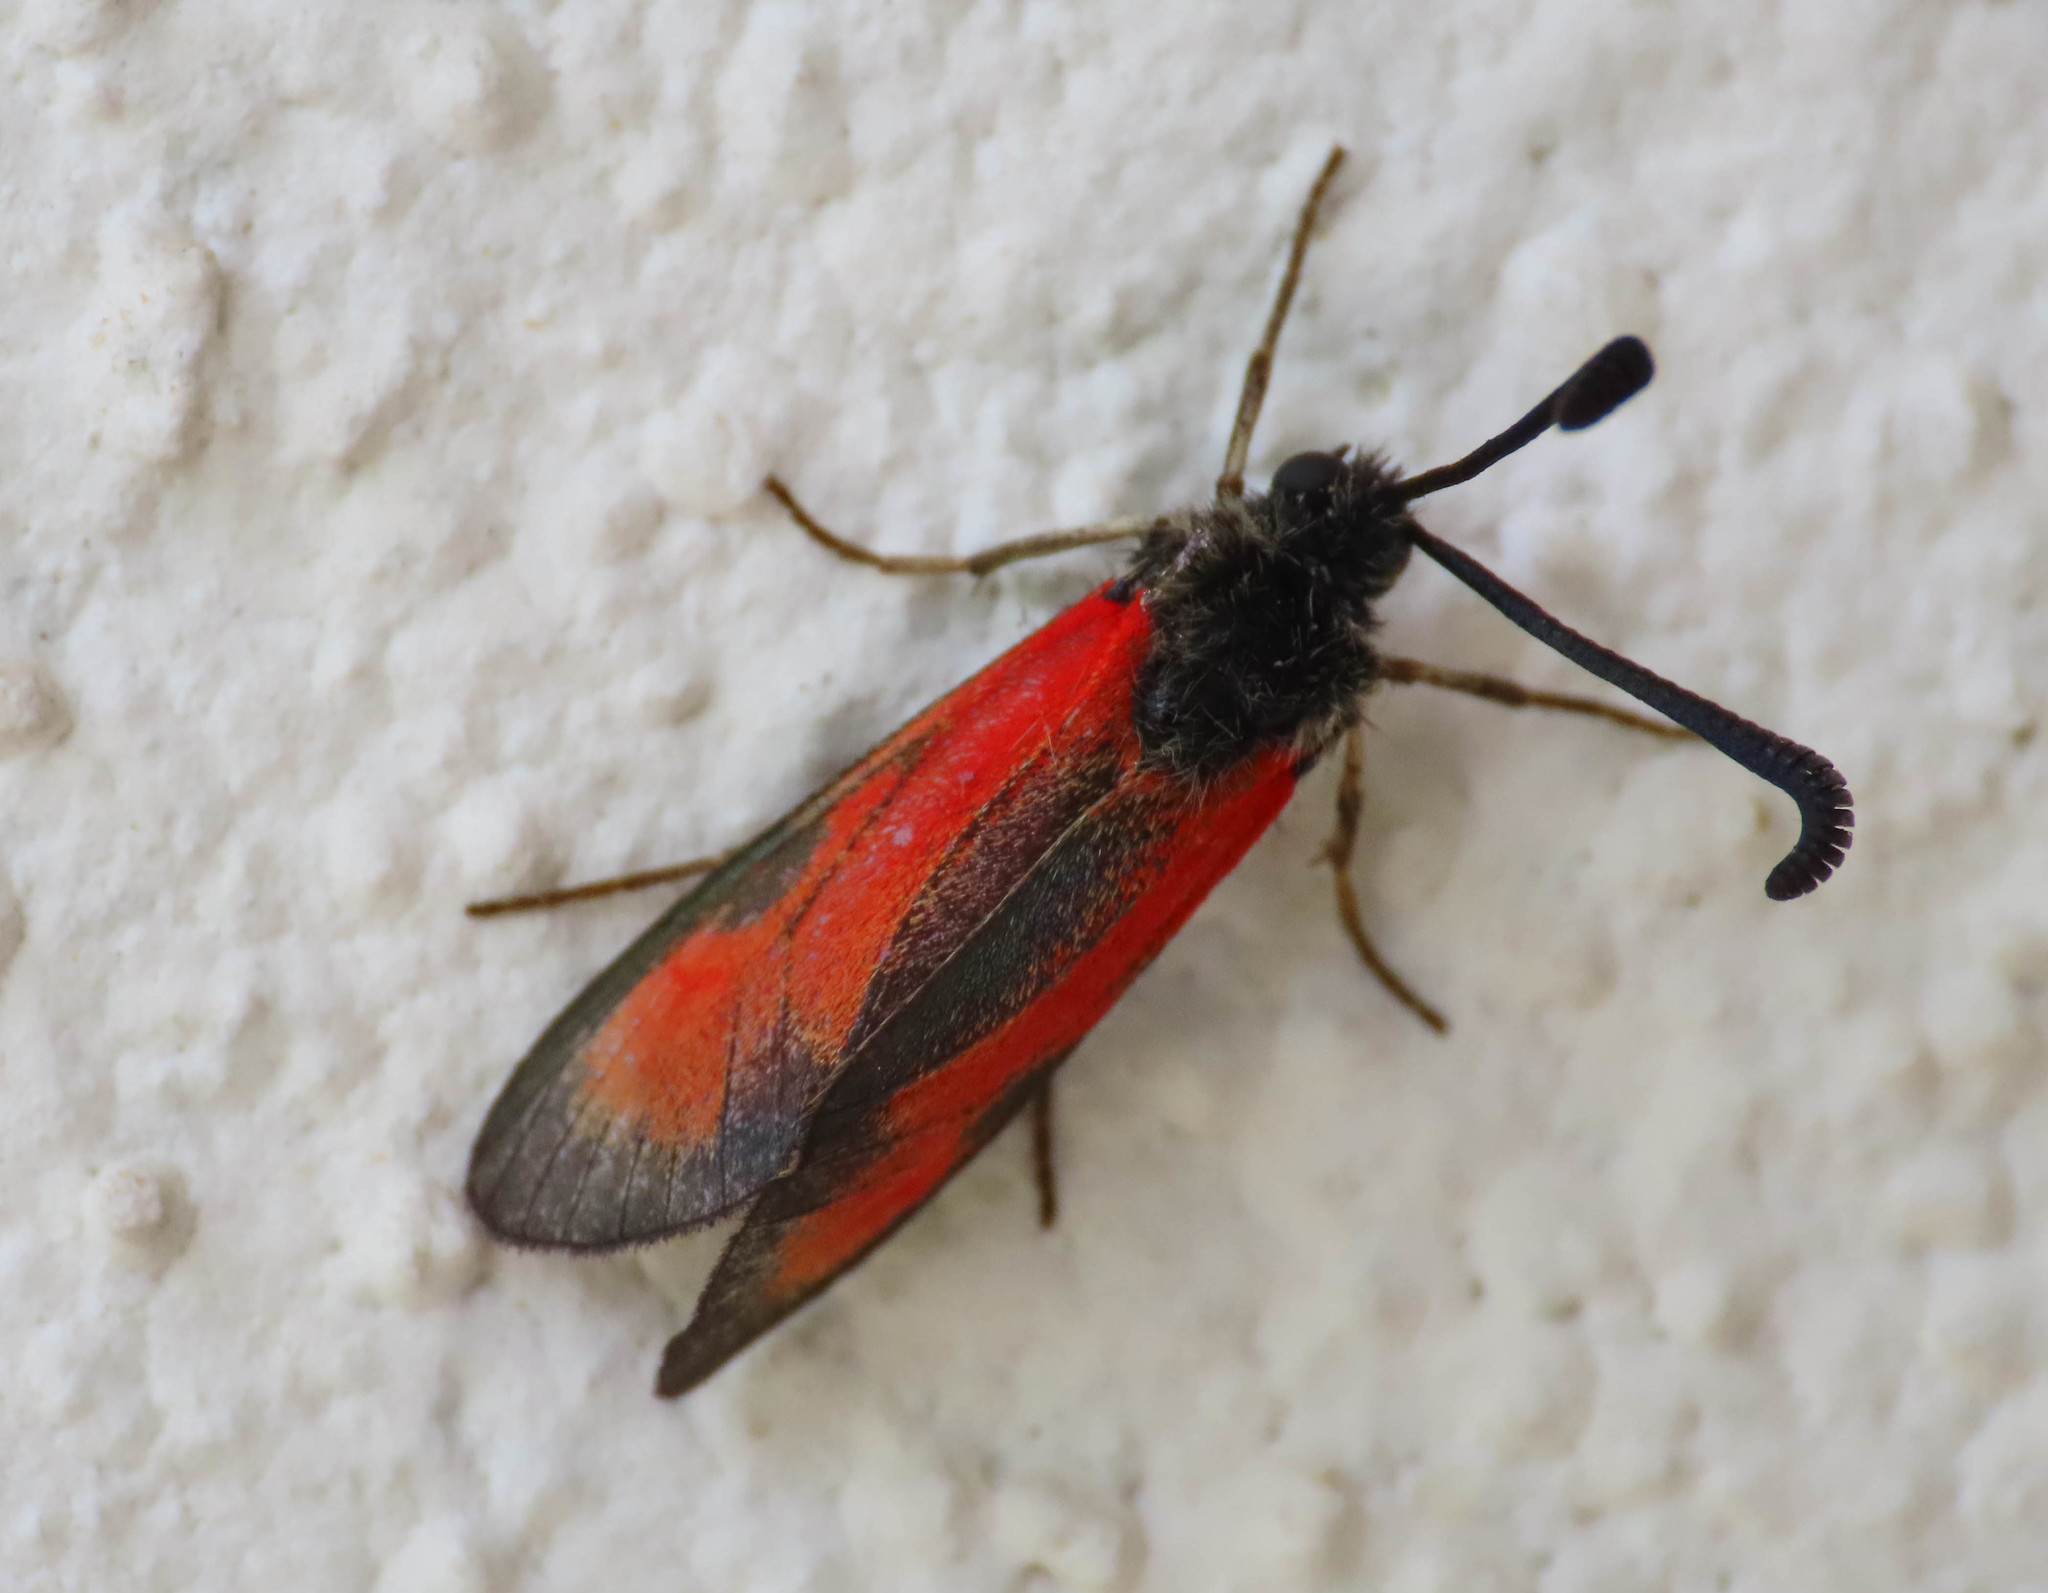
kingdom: Animalia
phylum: Arthropoda
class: Insecta
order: Lepidoptera
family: Zygaenidae
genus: Zygaena
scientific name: Zygaena punctum
